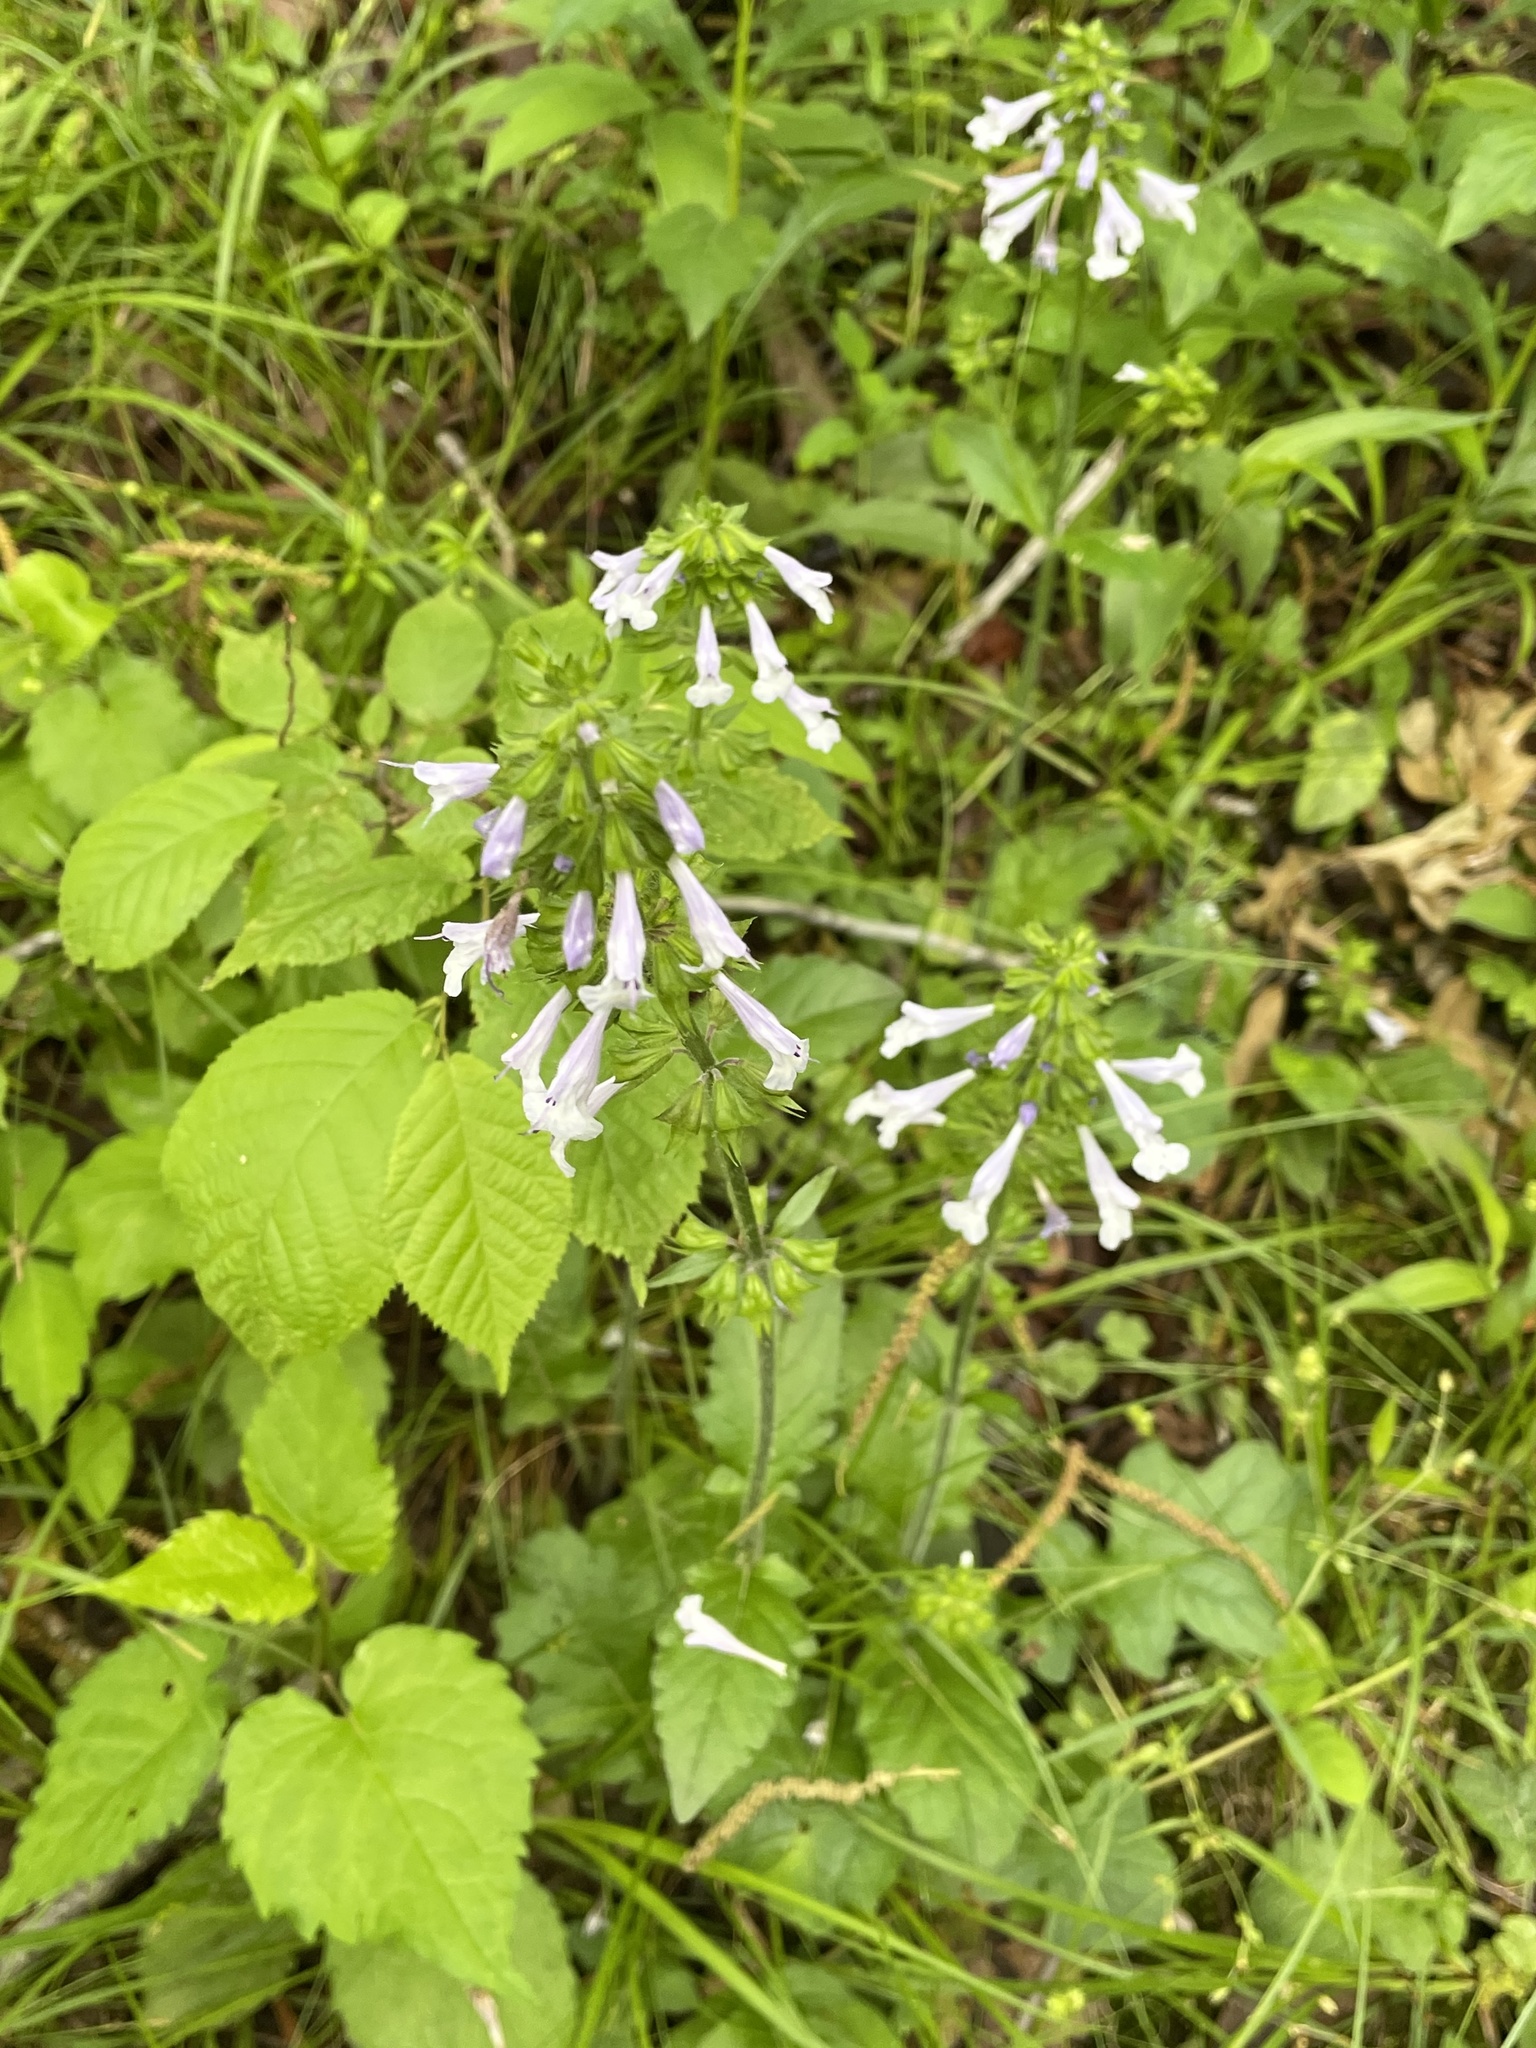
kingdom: Plantae
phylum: Tracheophyta
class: Magnoliopsida
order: Lamiales
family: Lamiaceae
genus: Salvia
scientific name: Salvia lyrata
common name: Cancerweed
